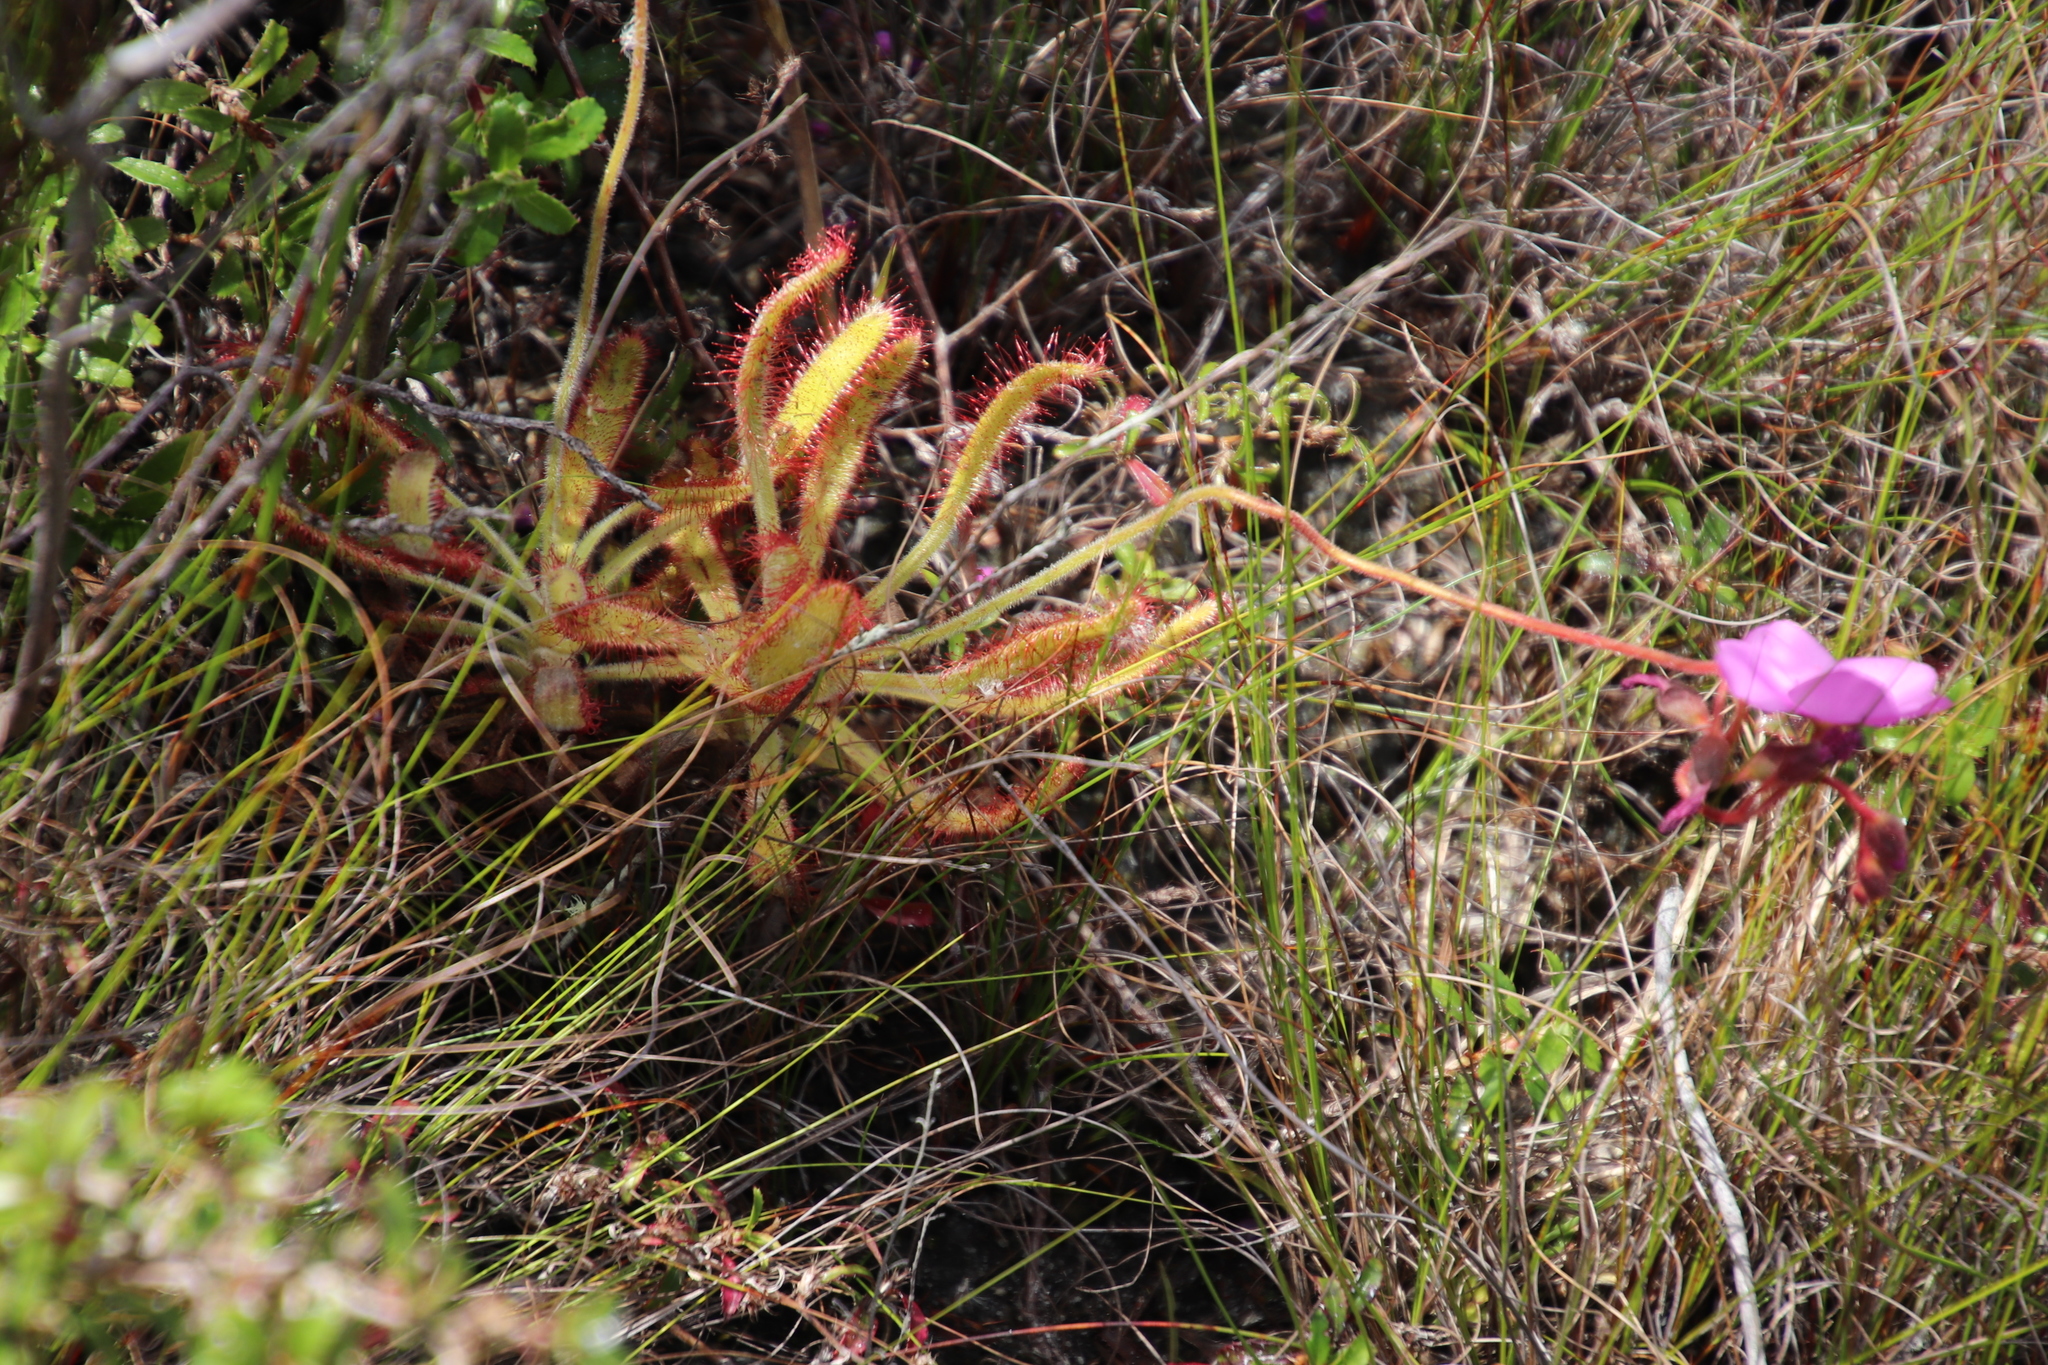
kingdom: Plantae
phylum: Tracheophyta
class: Magnoliopsida
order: Caryophyllales
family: Droseraceae
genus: Drosera
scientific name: Drosera hilaris
